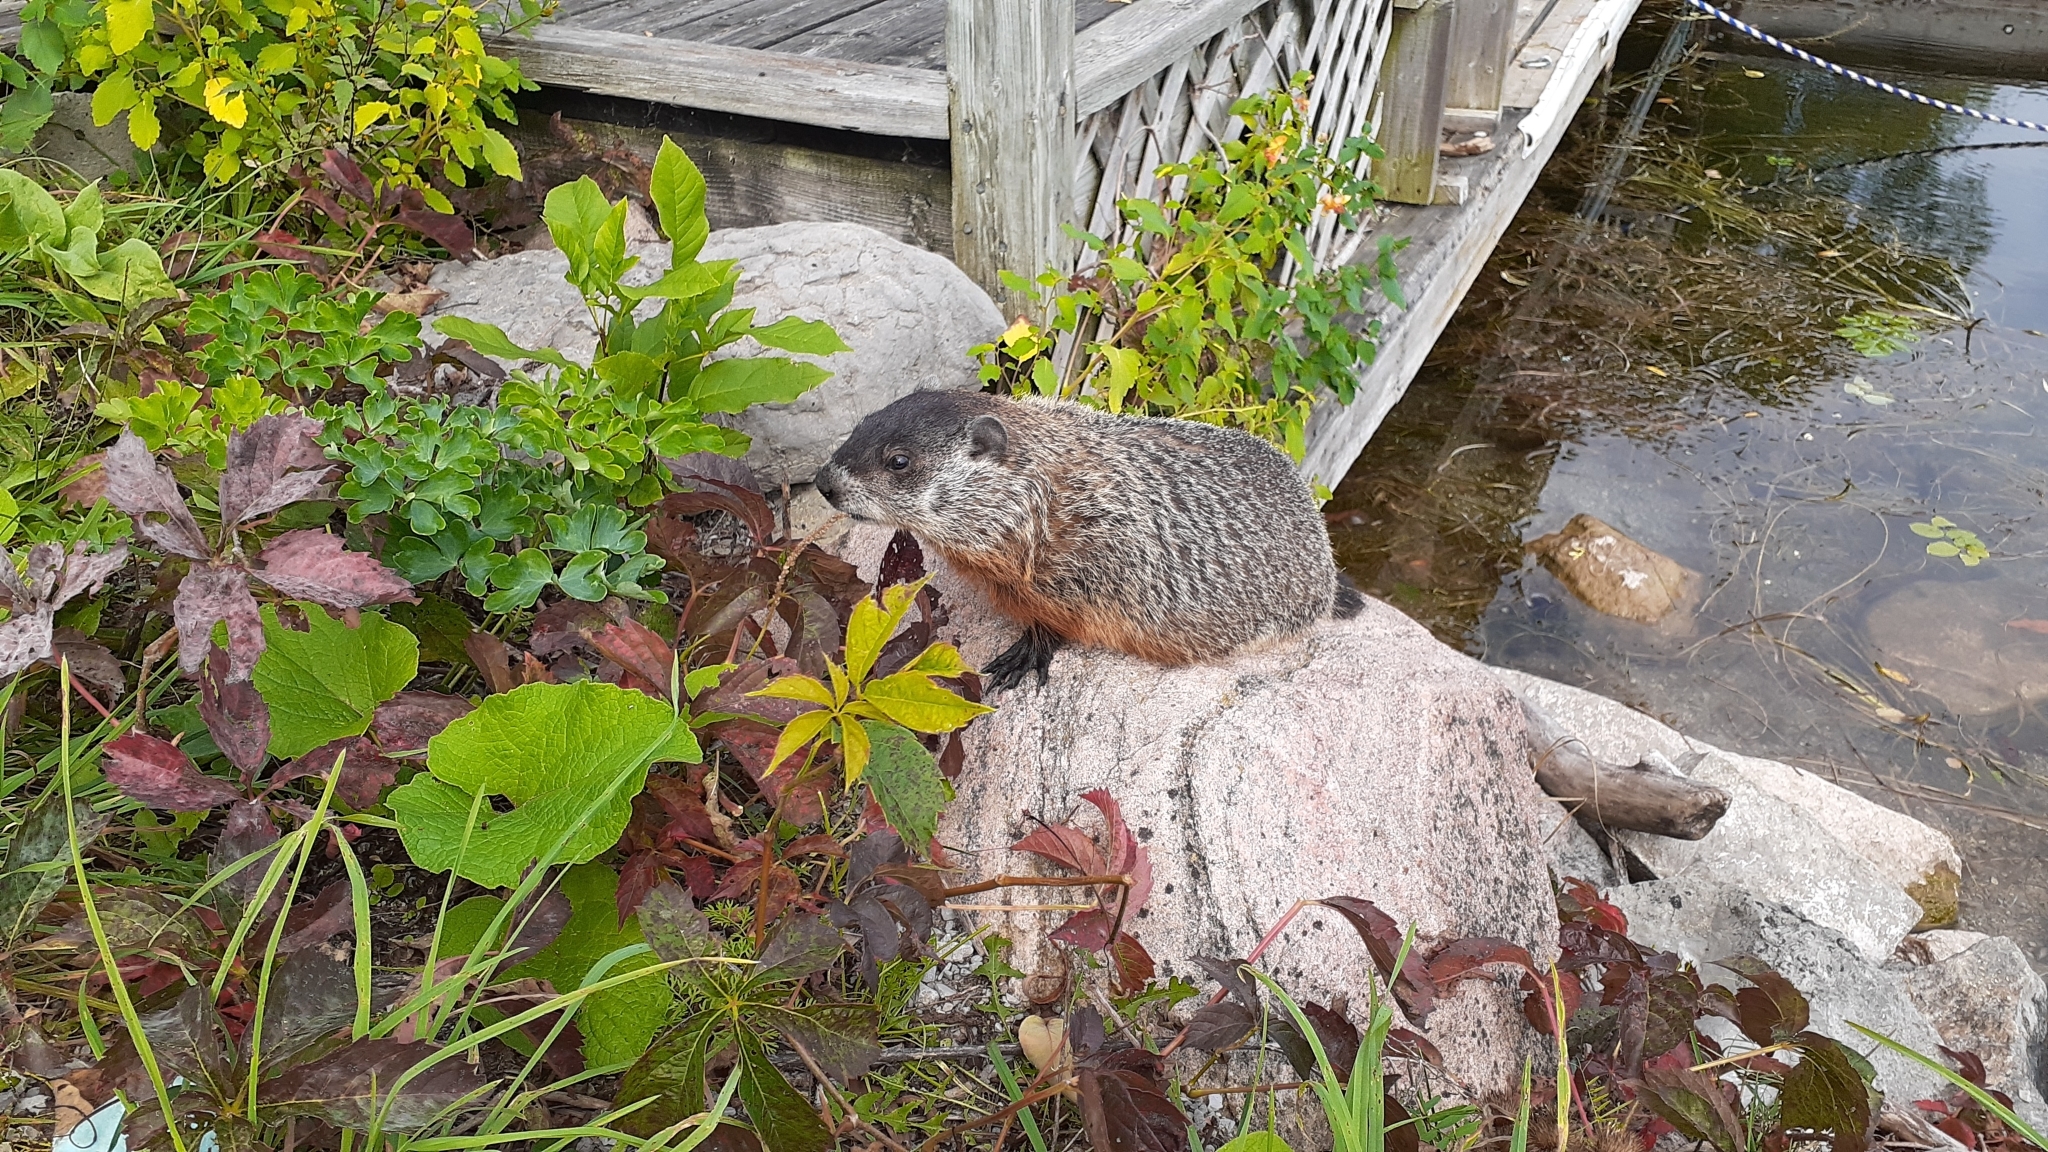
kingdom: Animalia
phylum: Chordata
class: Mammalia
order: Rodentia
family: Sciuridae
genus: Marmota
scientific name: Marmota monax
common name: Groundhog
